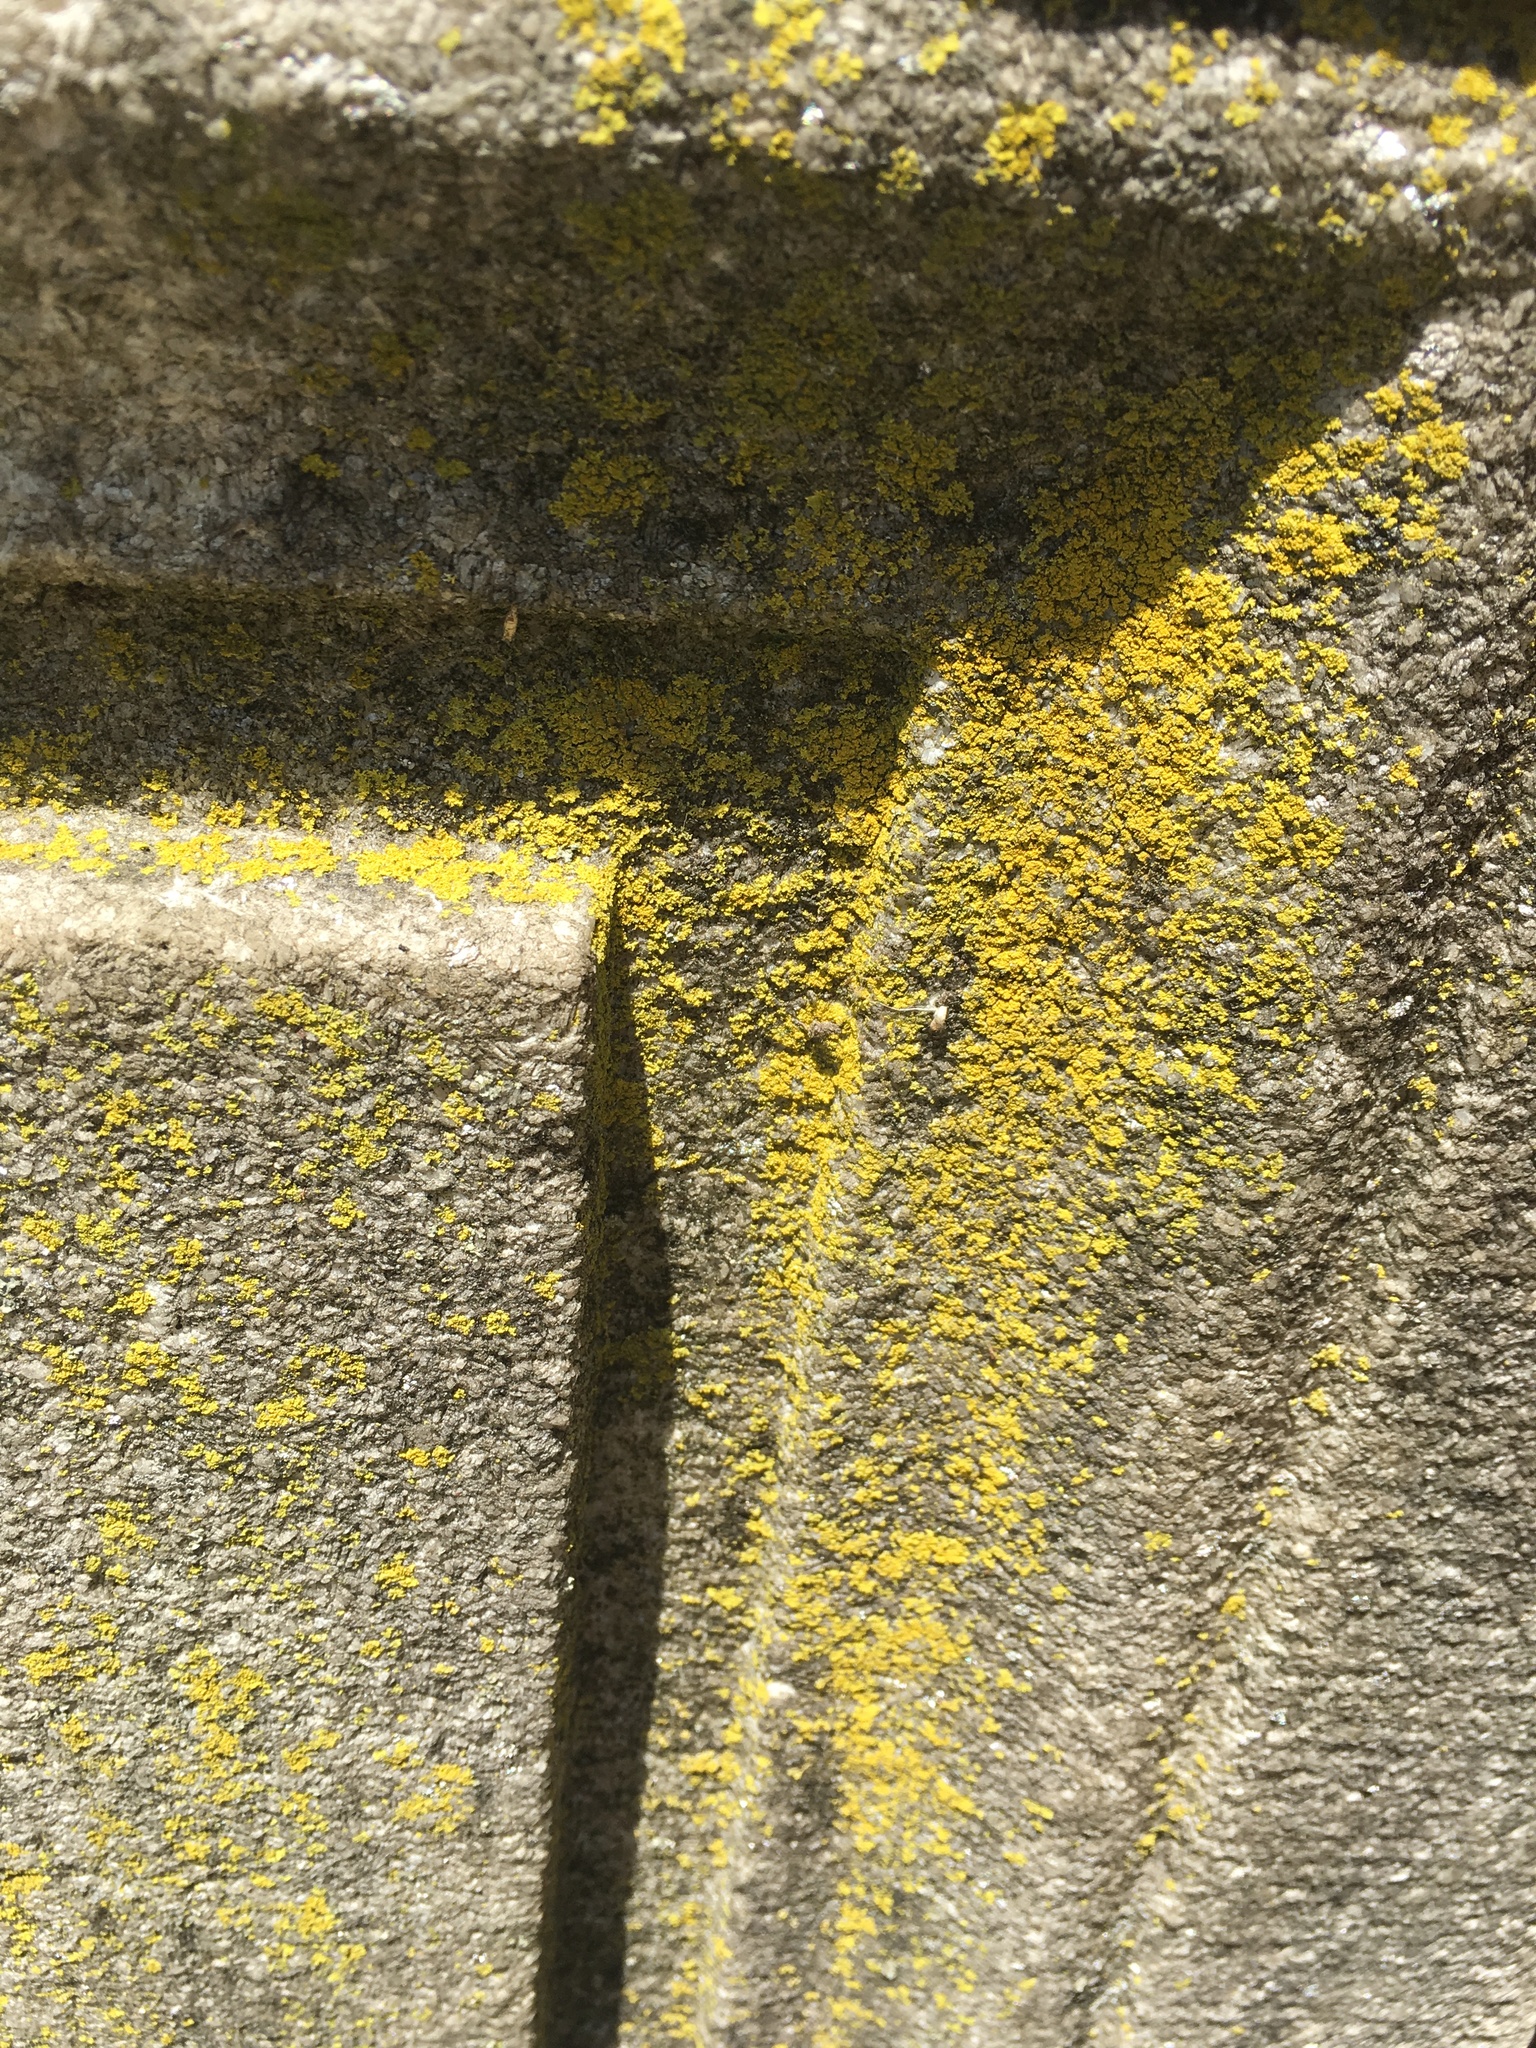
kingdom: Fungi
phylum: Ascomycota
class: Candelariomycetes
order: Candelariales
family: Candelariaceae
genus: Candelaria
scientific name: Candelaria concolor
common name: Candleflame lichen
